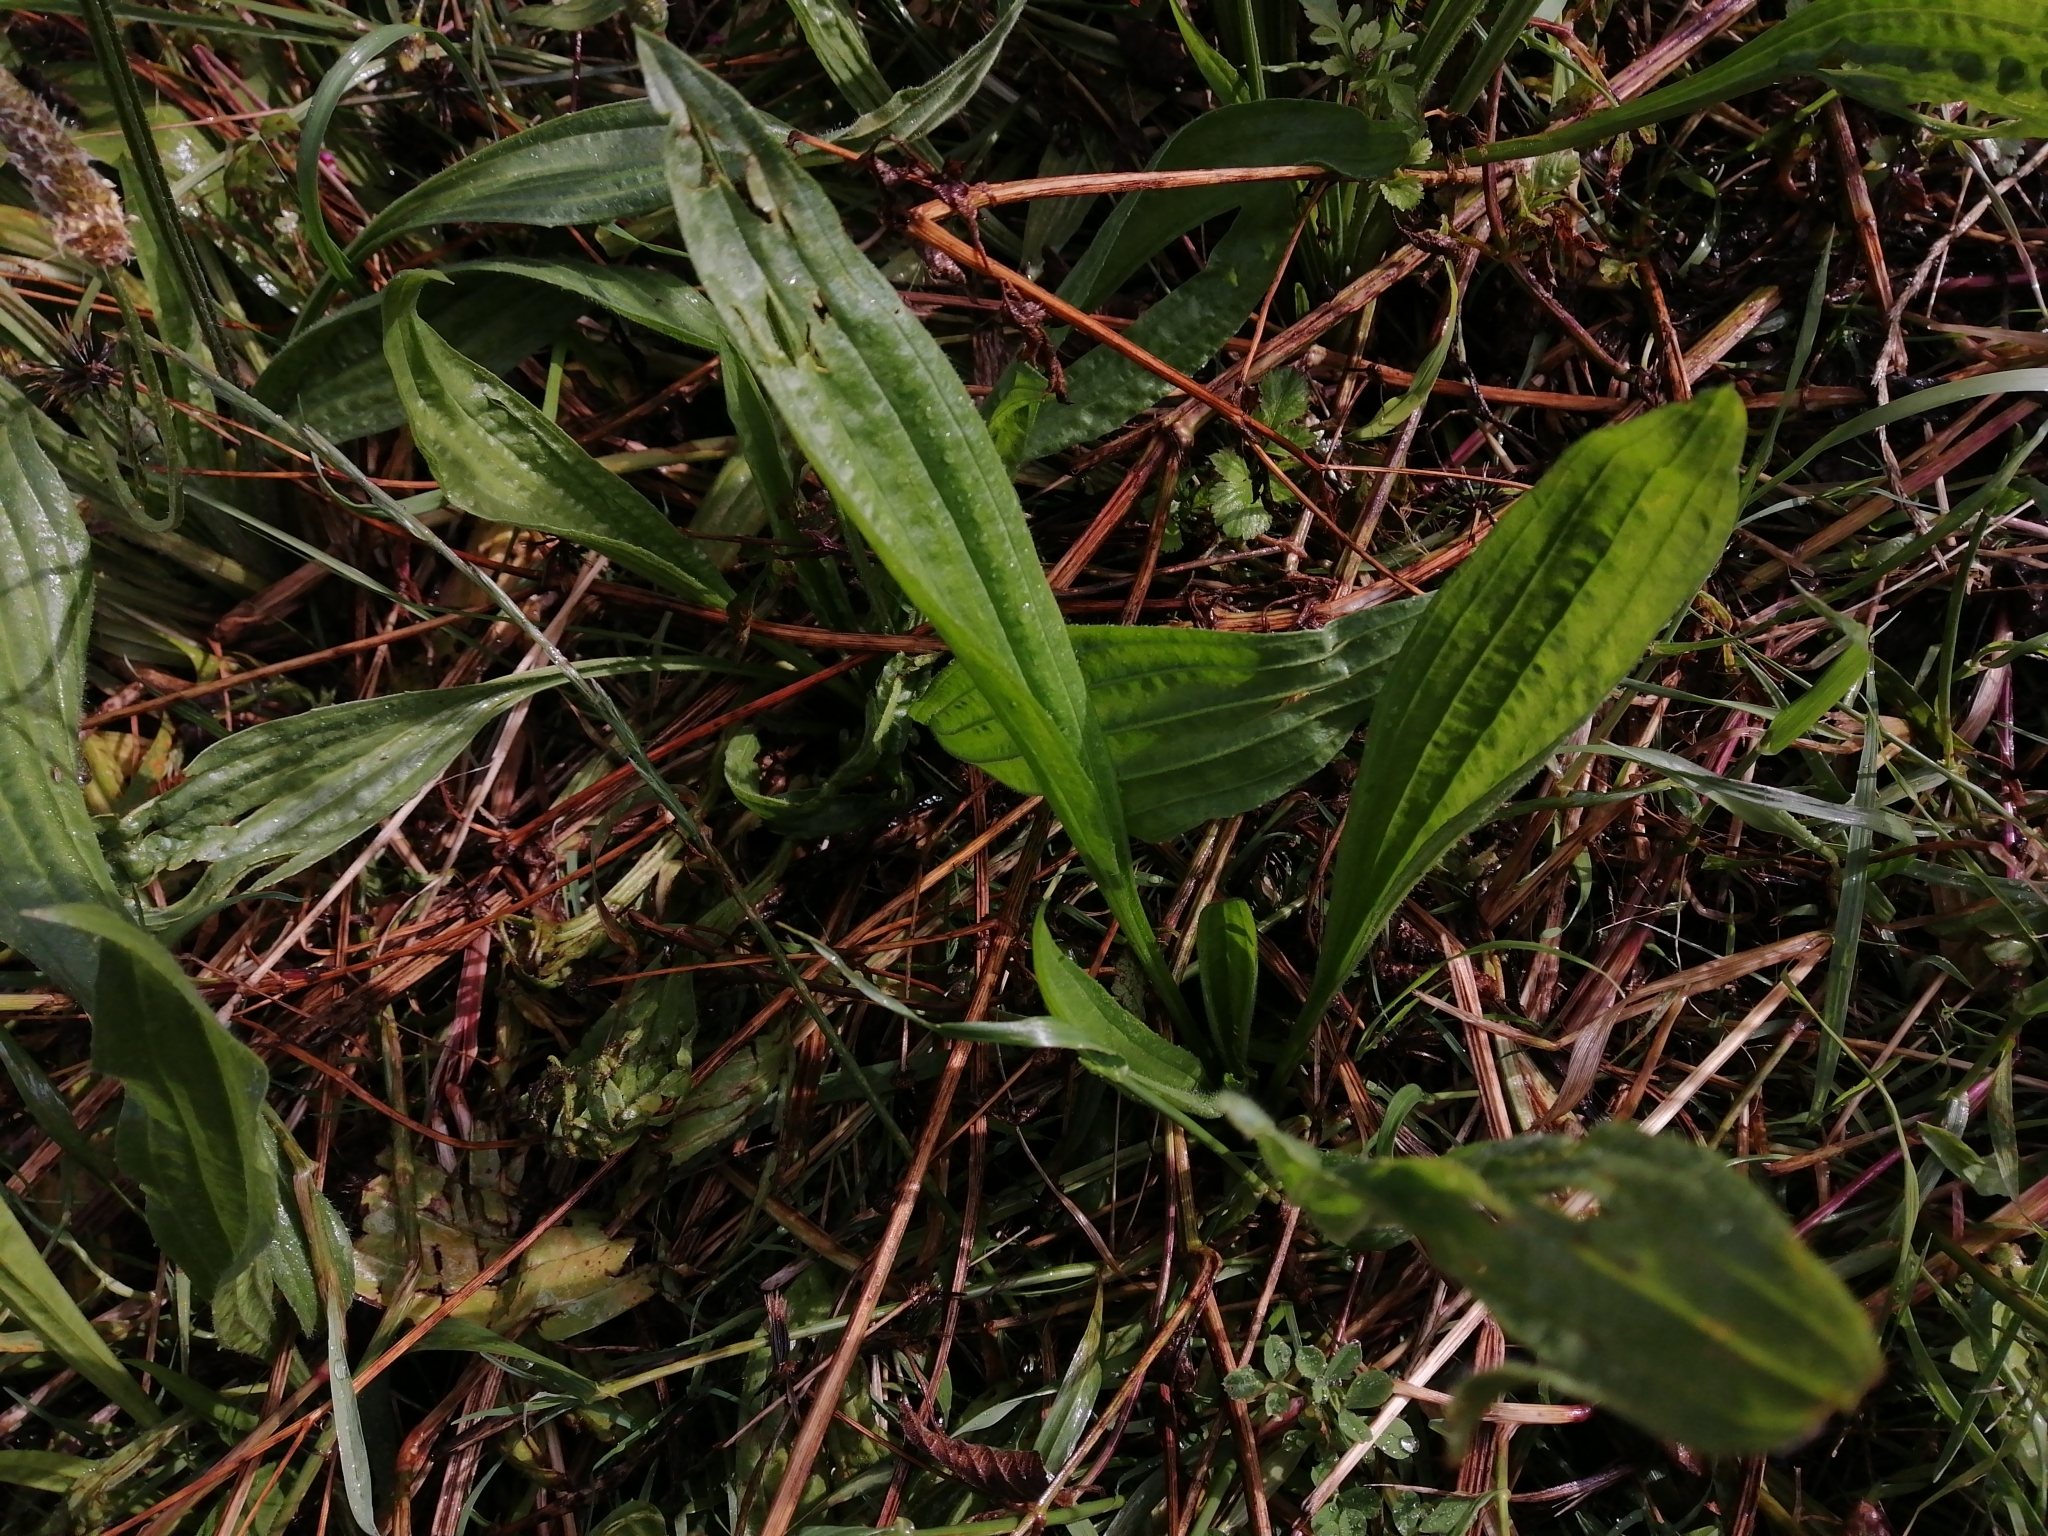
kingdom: Plantae
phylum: Tracheophyta
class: Magnoliopsida
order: Lamiales
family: Plantaginaceae
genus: Plantago
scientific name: Plantago lanceolata
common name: Ribwort plantain
